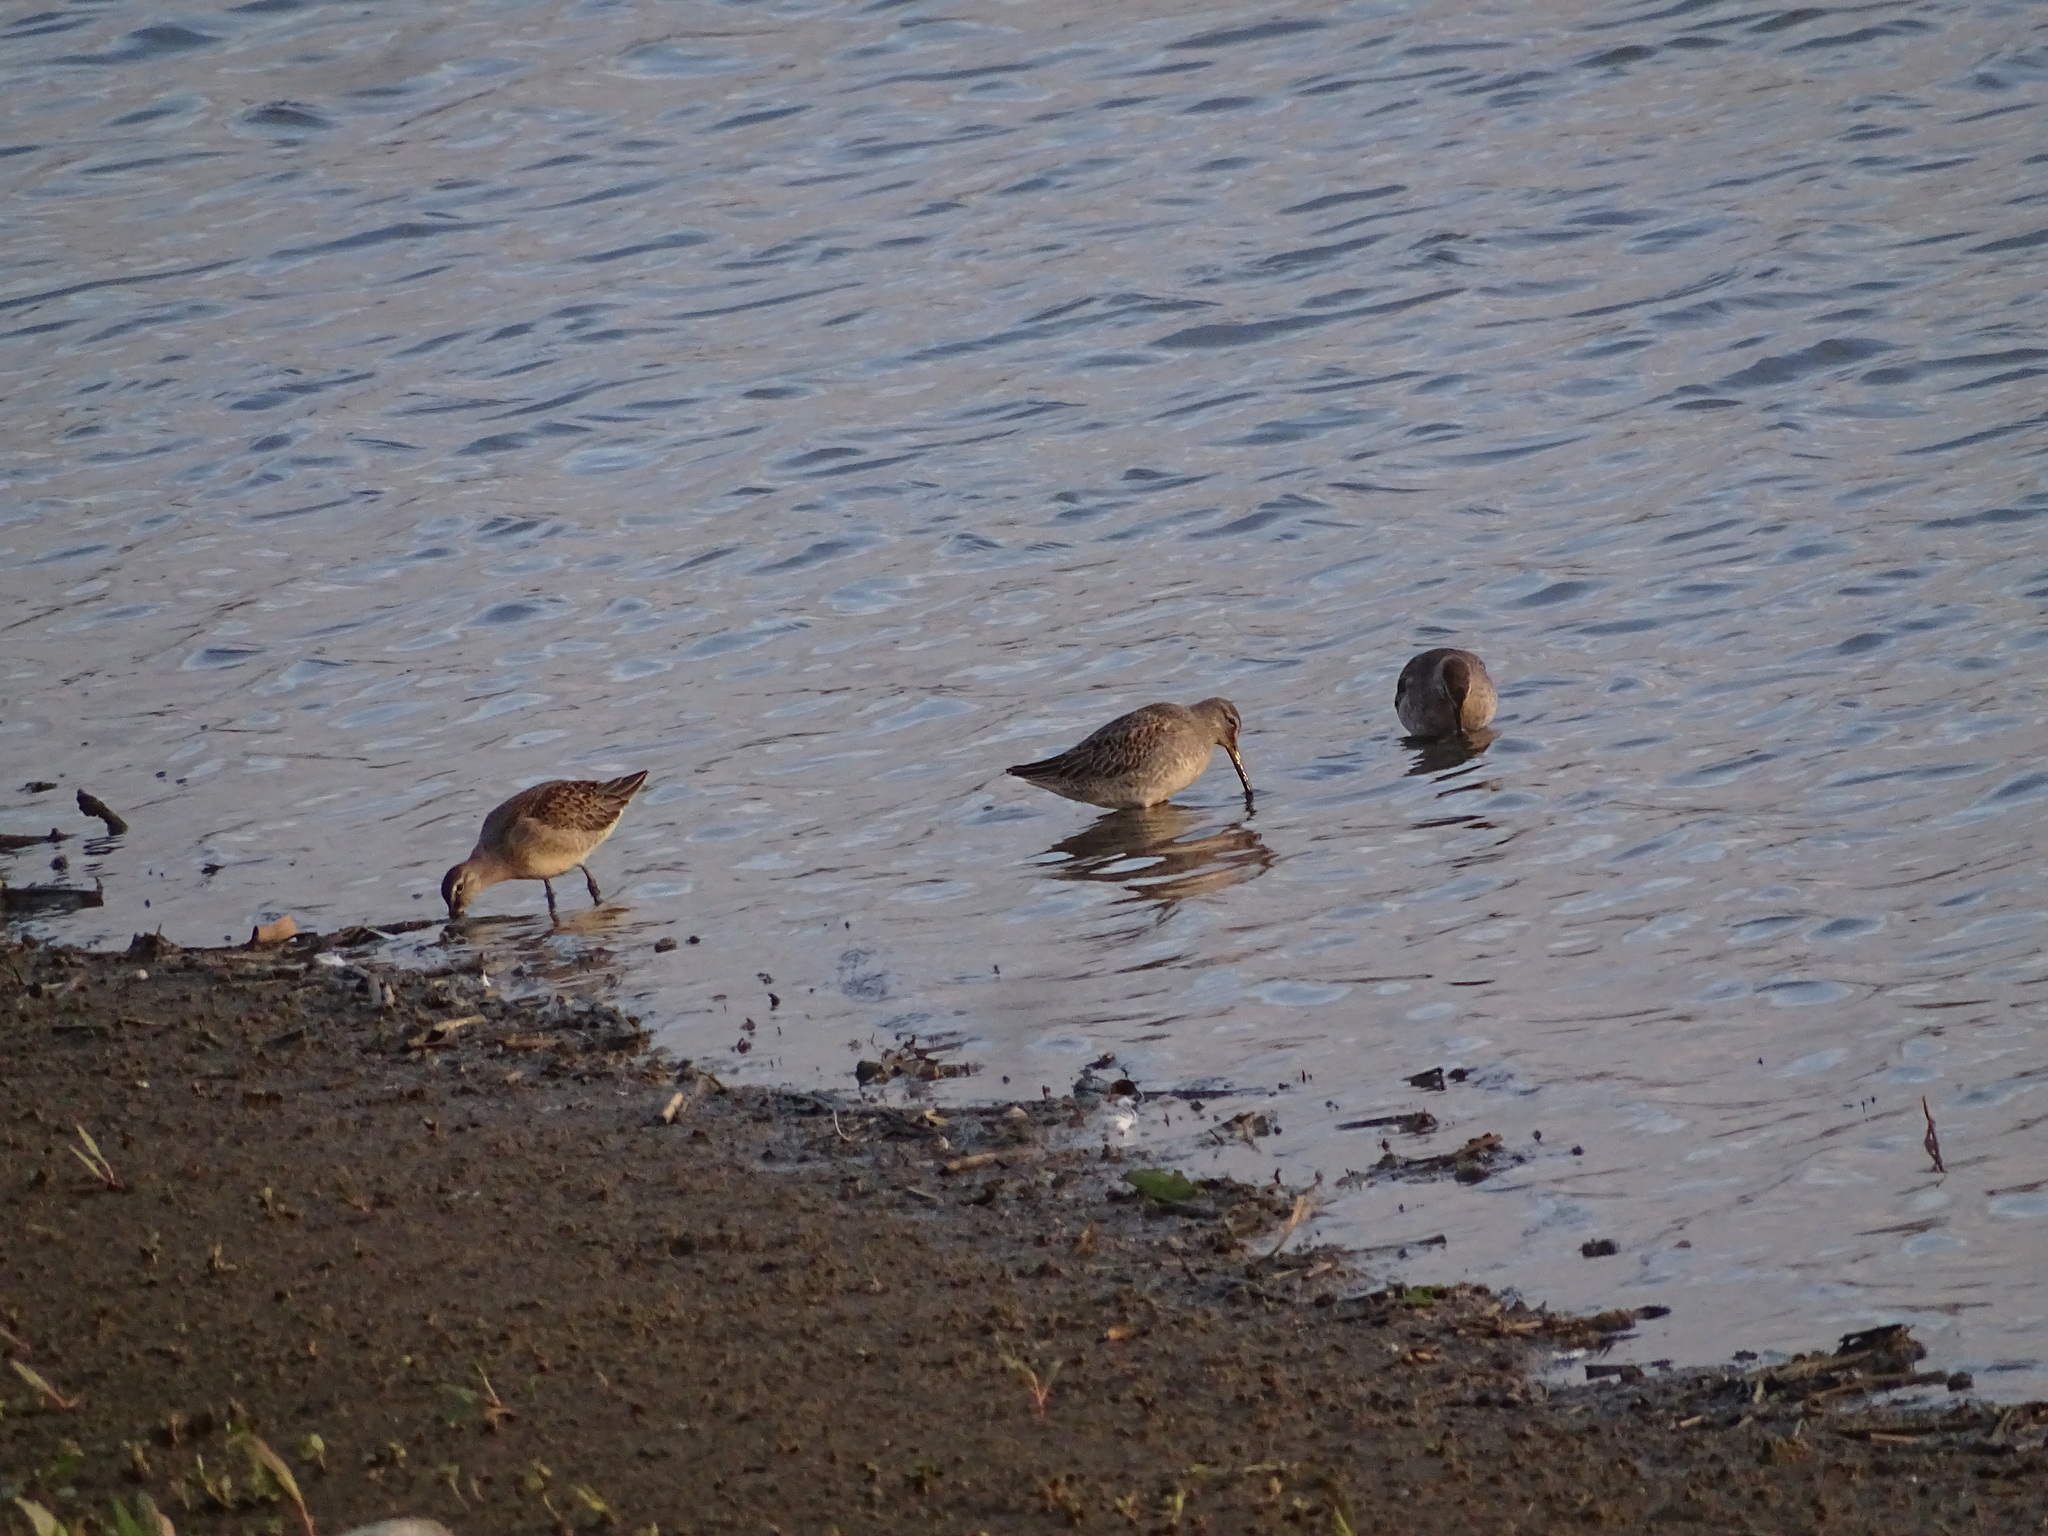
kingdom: Animalia
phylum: Chordata
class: Aves
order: Charadriiformes
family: Scolopacidae
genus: Limnodromus
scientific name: Limnodromus scolopaceus
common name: Long-billed dowitcher
